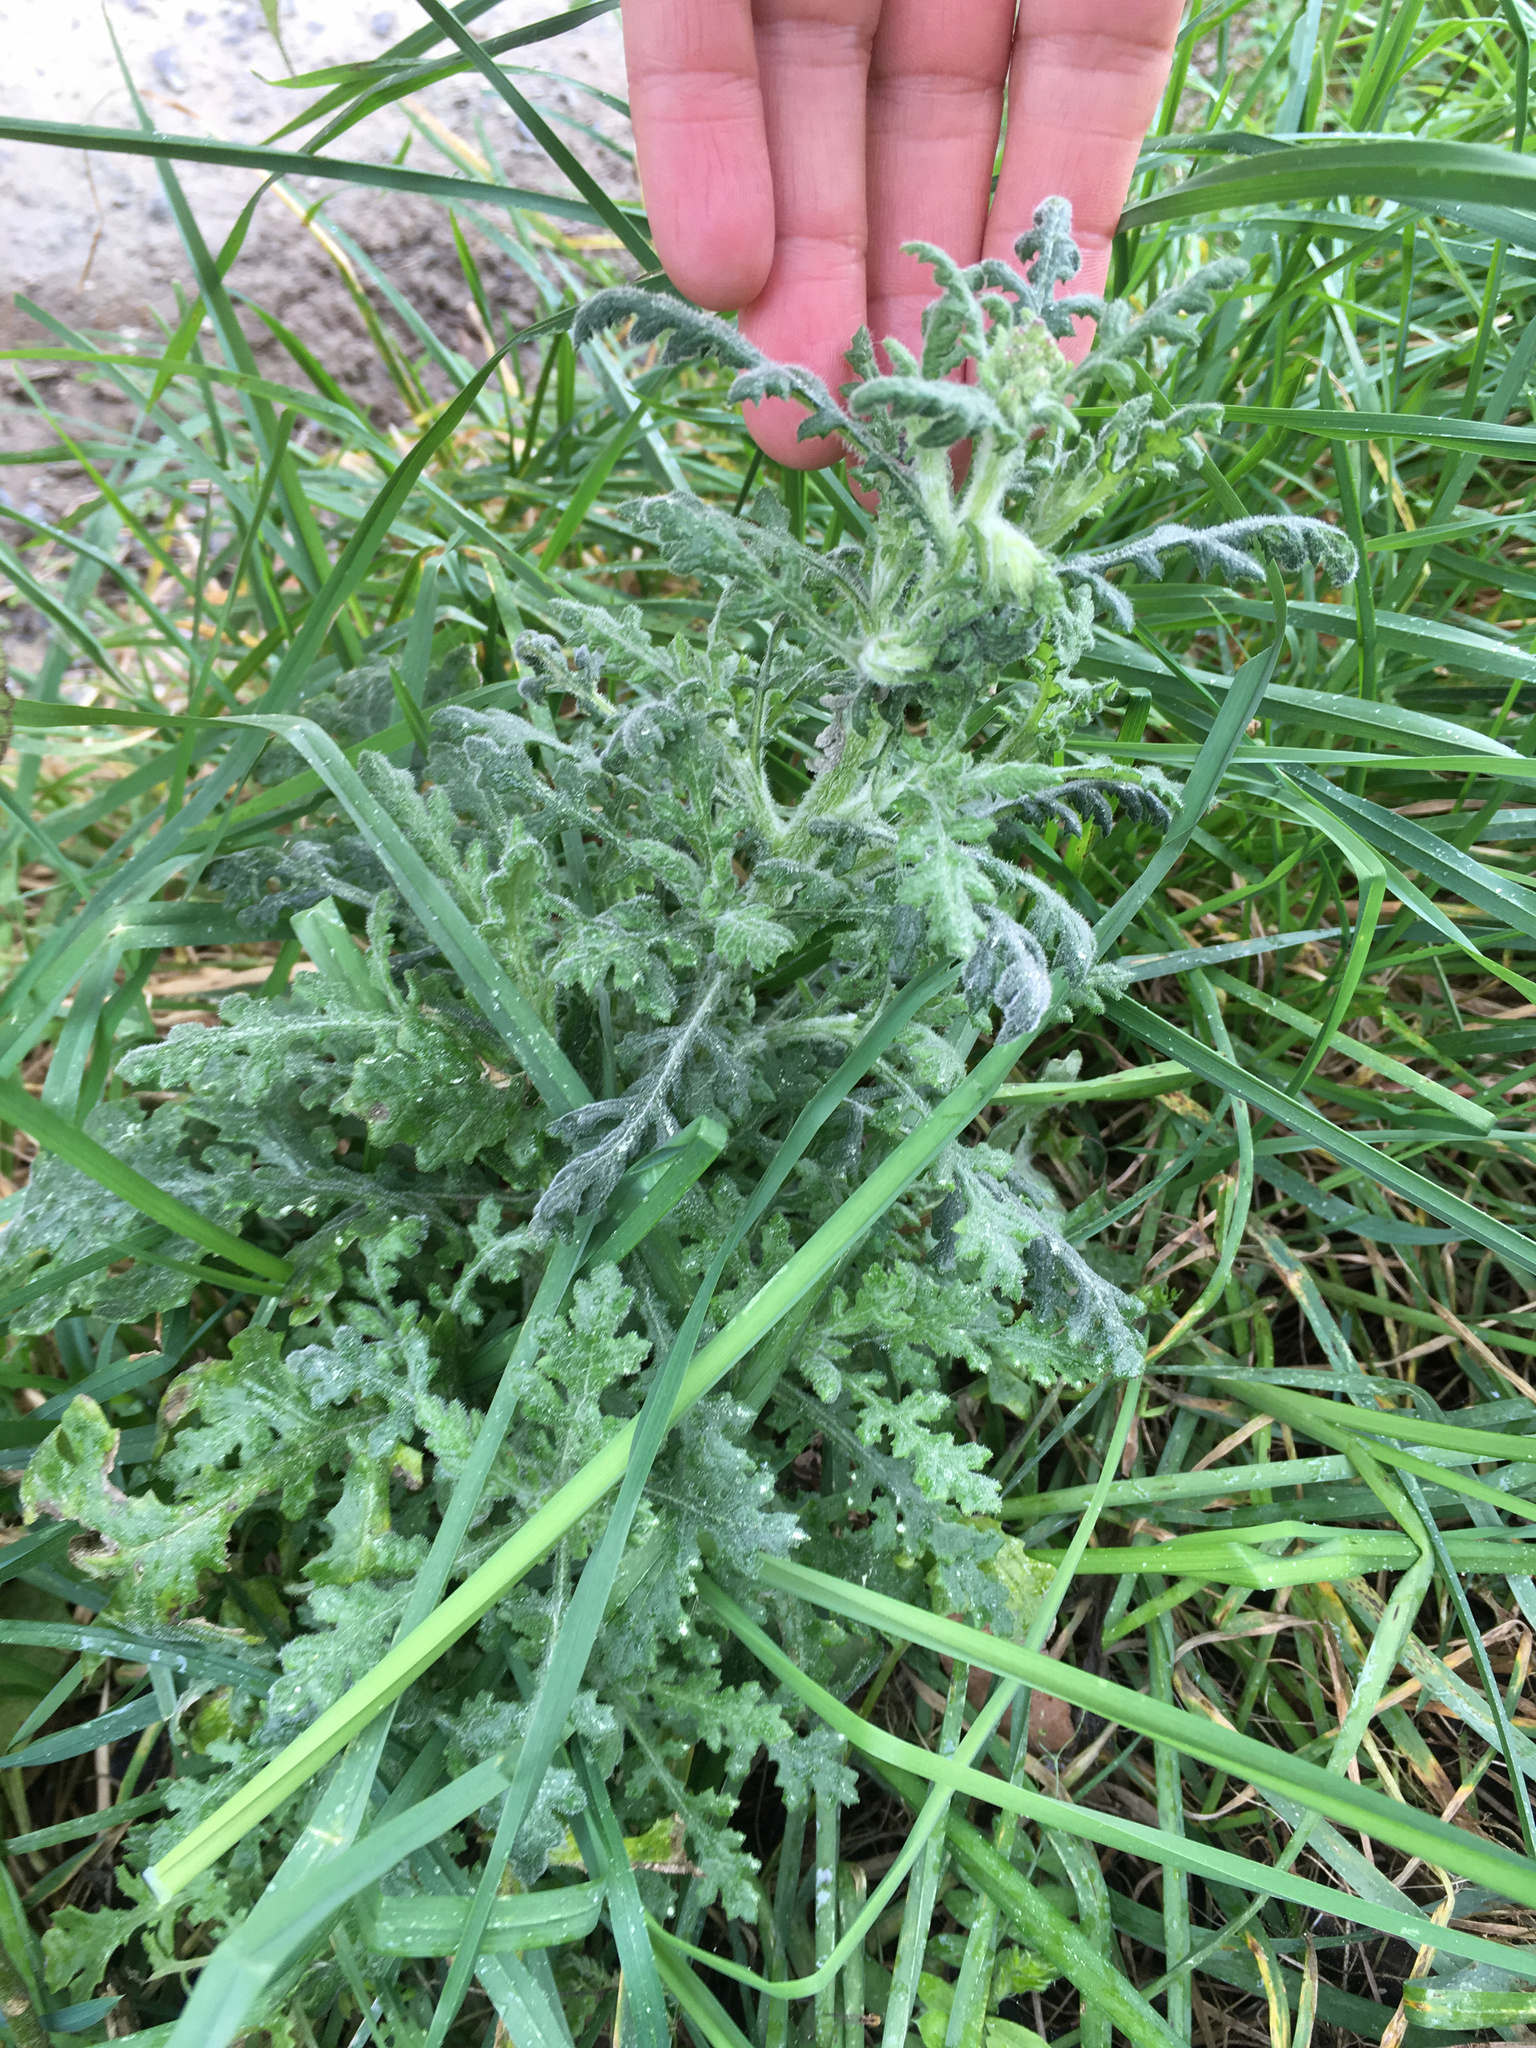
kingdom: Plantae
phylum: Tracheophyta
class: Magnoliopsida
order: Asterales
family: Asteraceae
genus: Senecio
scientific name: Senecio sylvaticus
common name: Woodland ragwort
